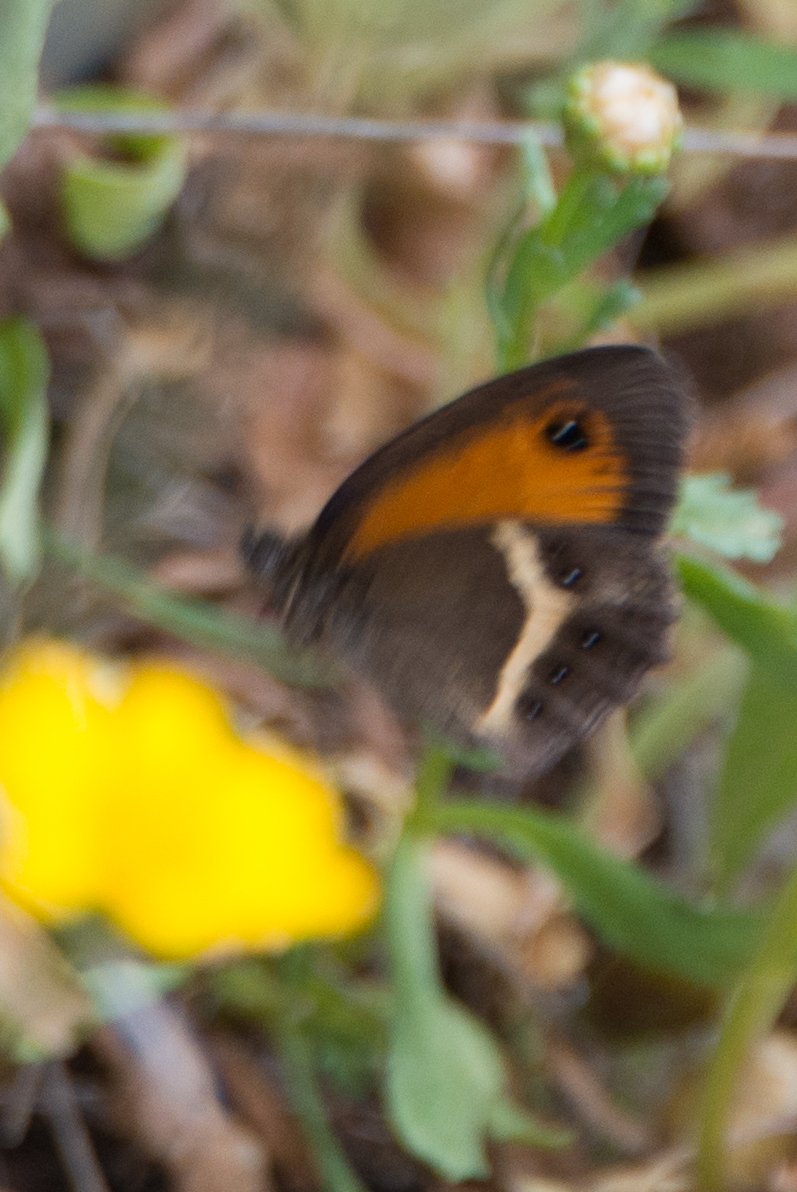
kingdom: Animalia
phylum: Arthropoda
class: Insecta
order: Lepidoptera
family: Nymphalidae
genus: Pyronia
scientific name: Pyronia bathseba
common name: Spanish gatekeeper
